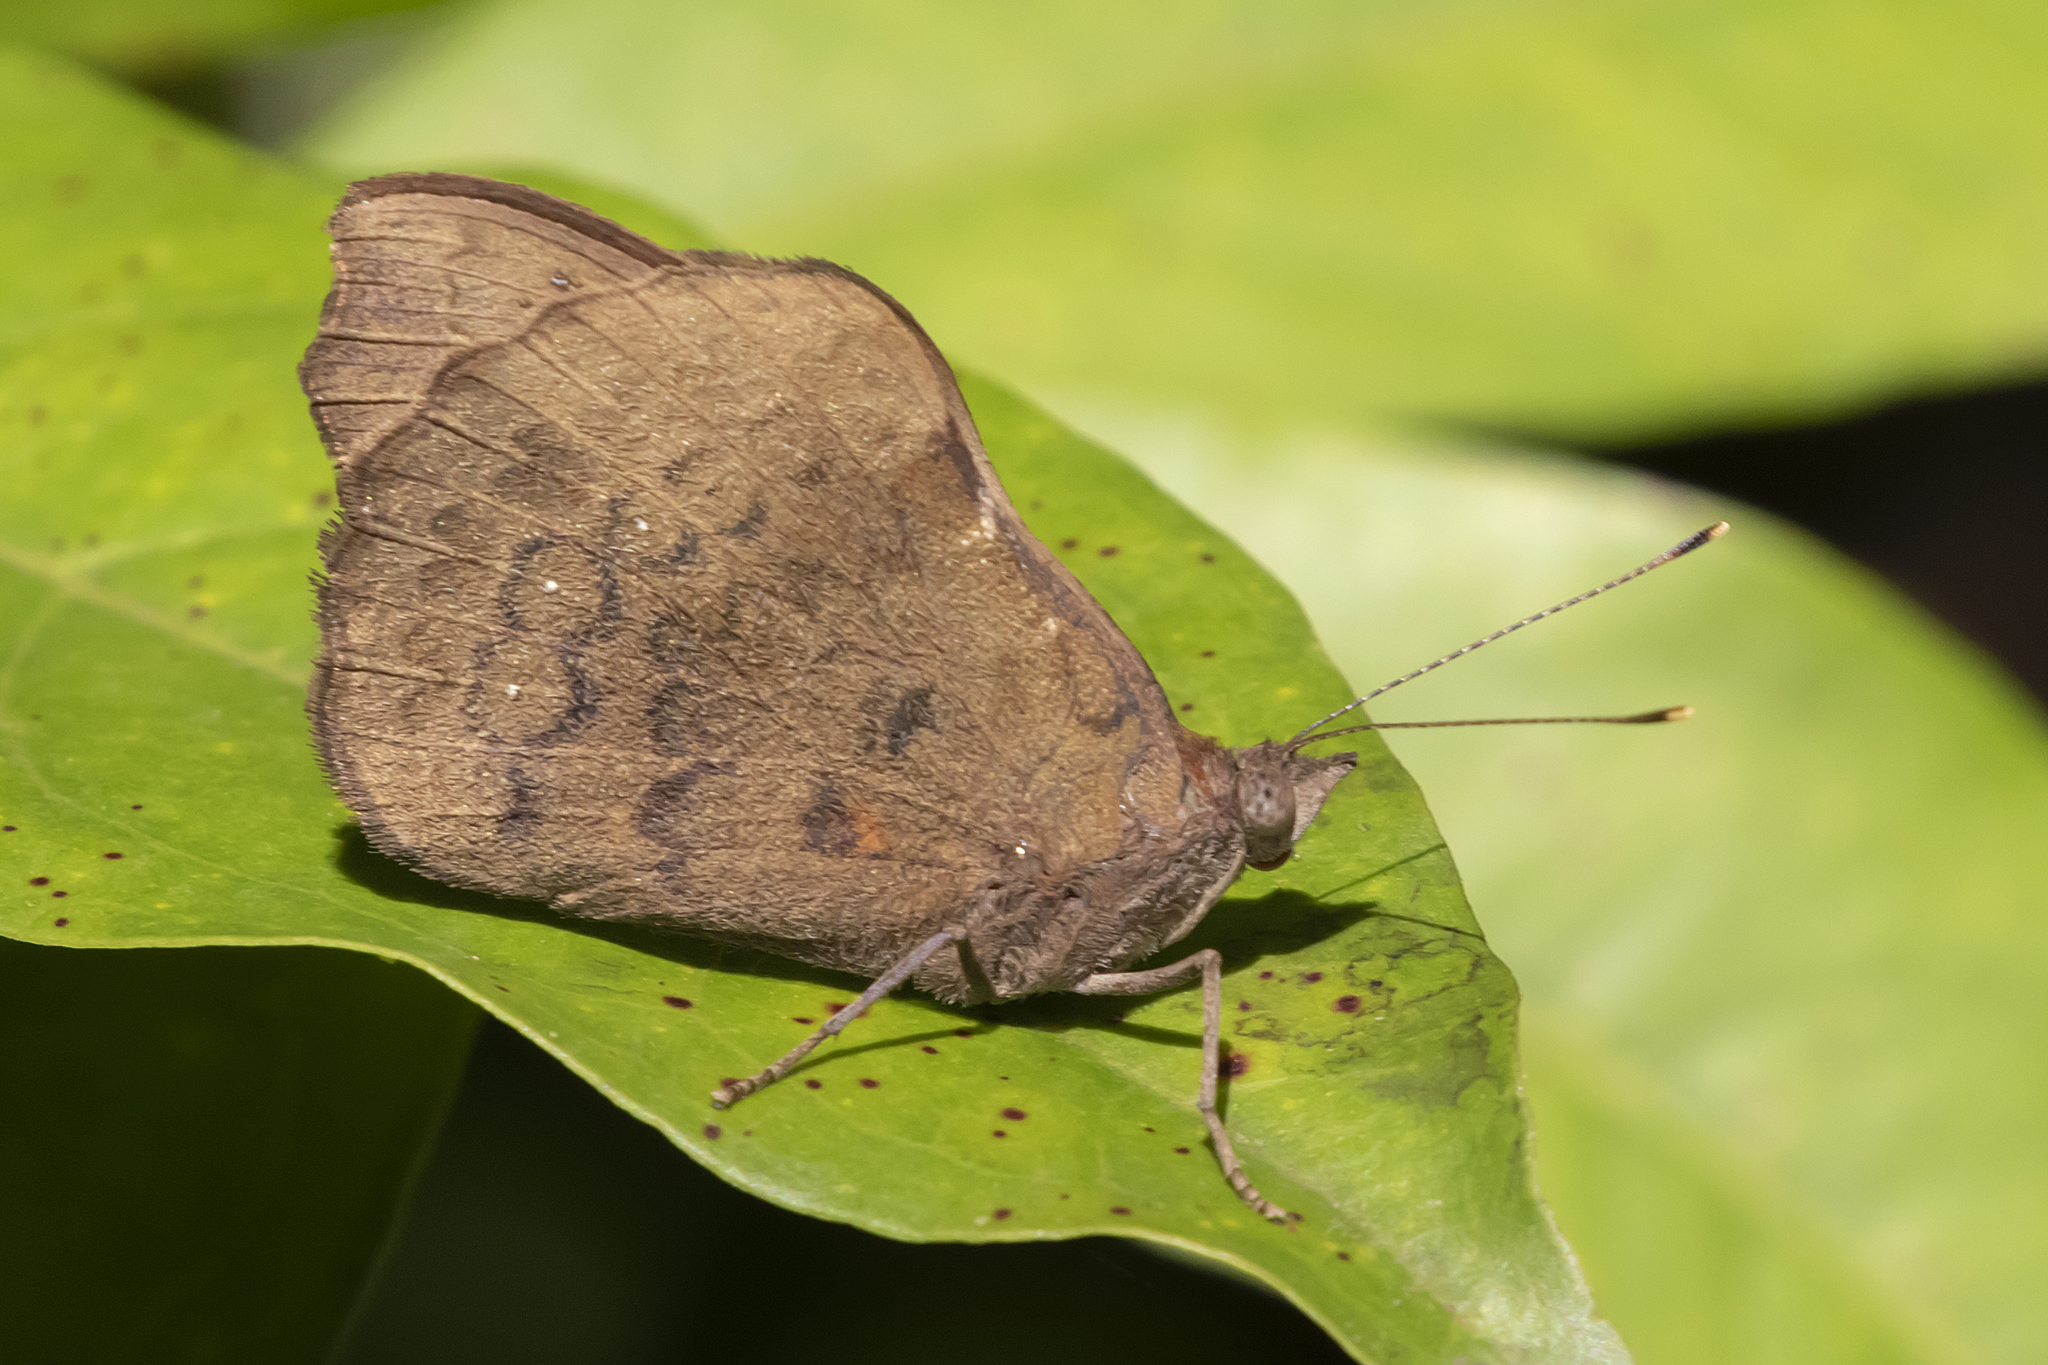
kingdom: Animalia
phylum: Arthropoda
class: Insecta
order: Lepidoptera
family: Nymphalidae
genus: Eunica
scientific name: Eunica tatila
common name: Florida purplewing
